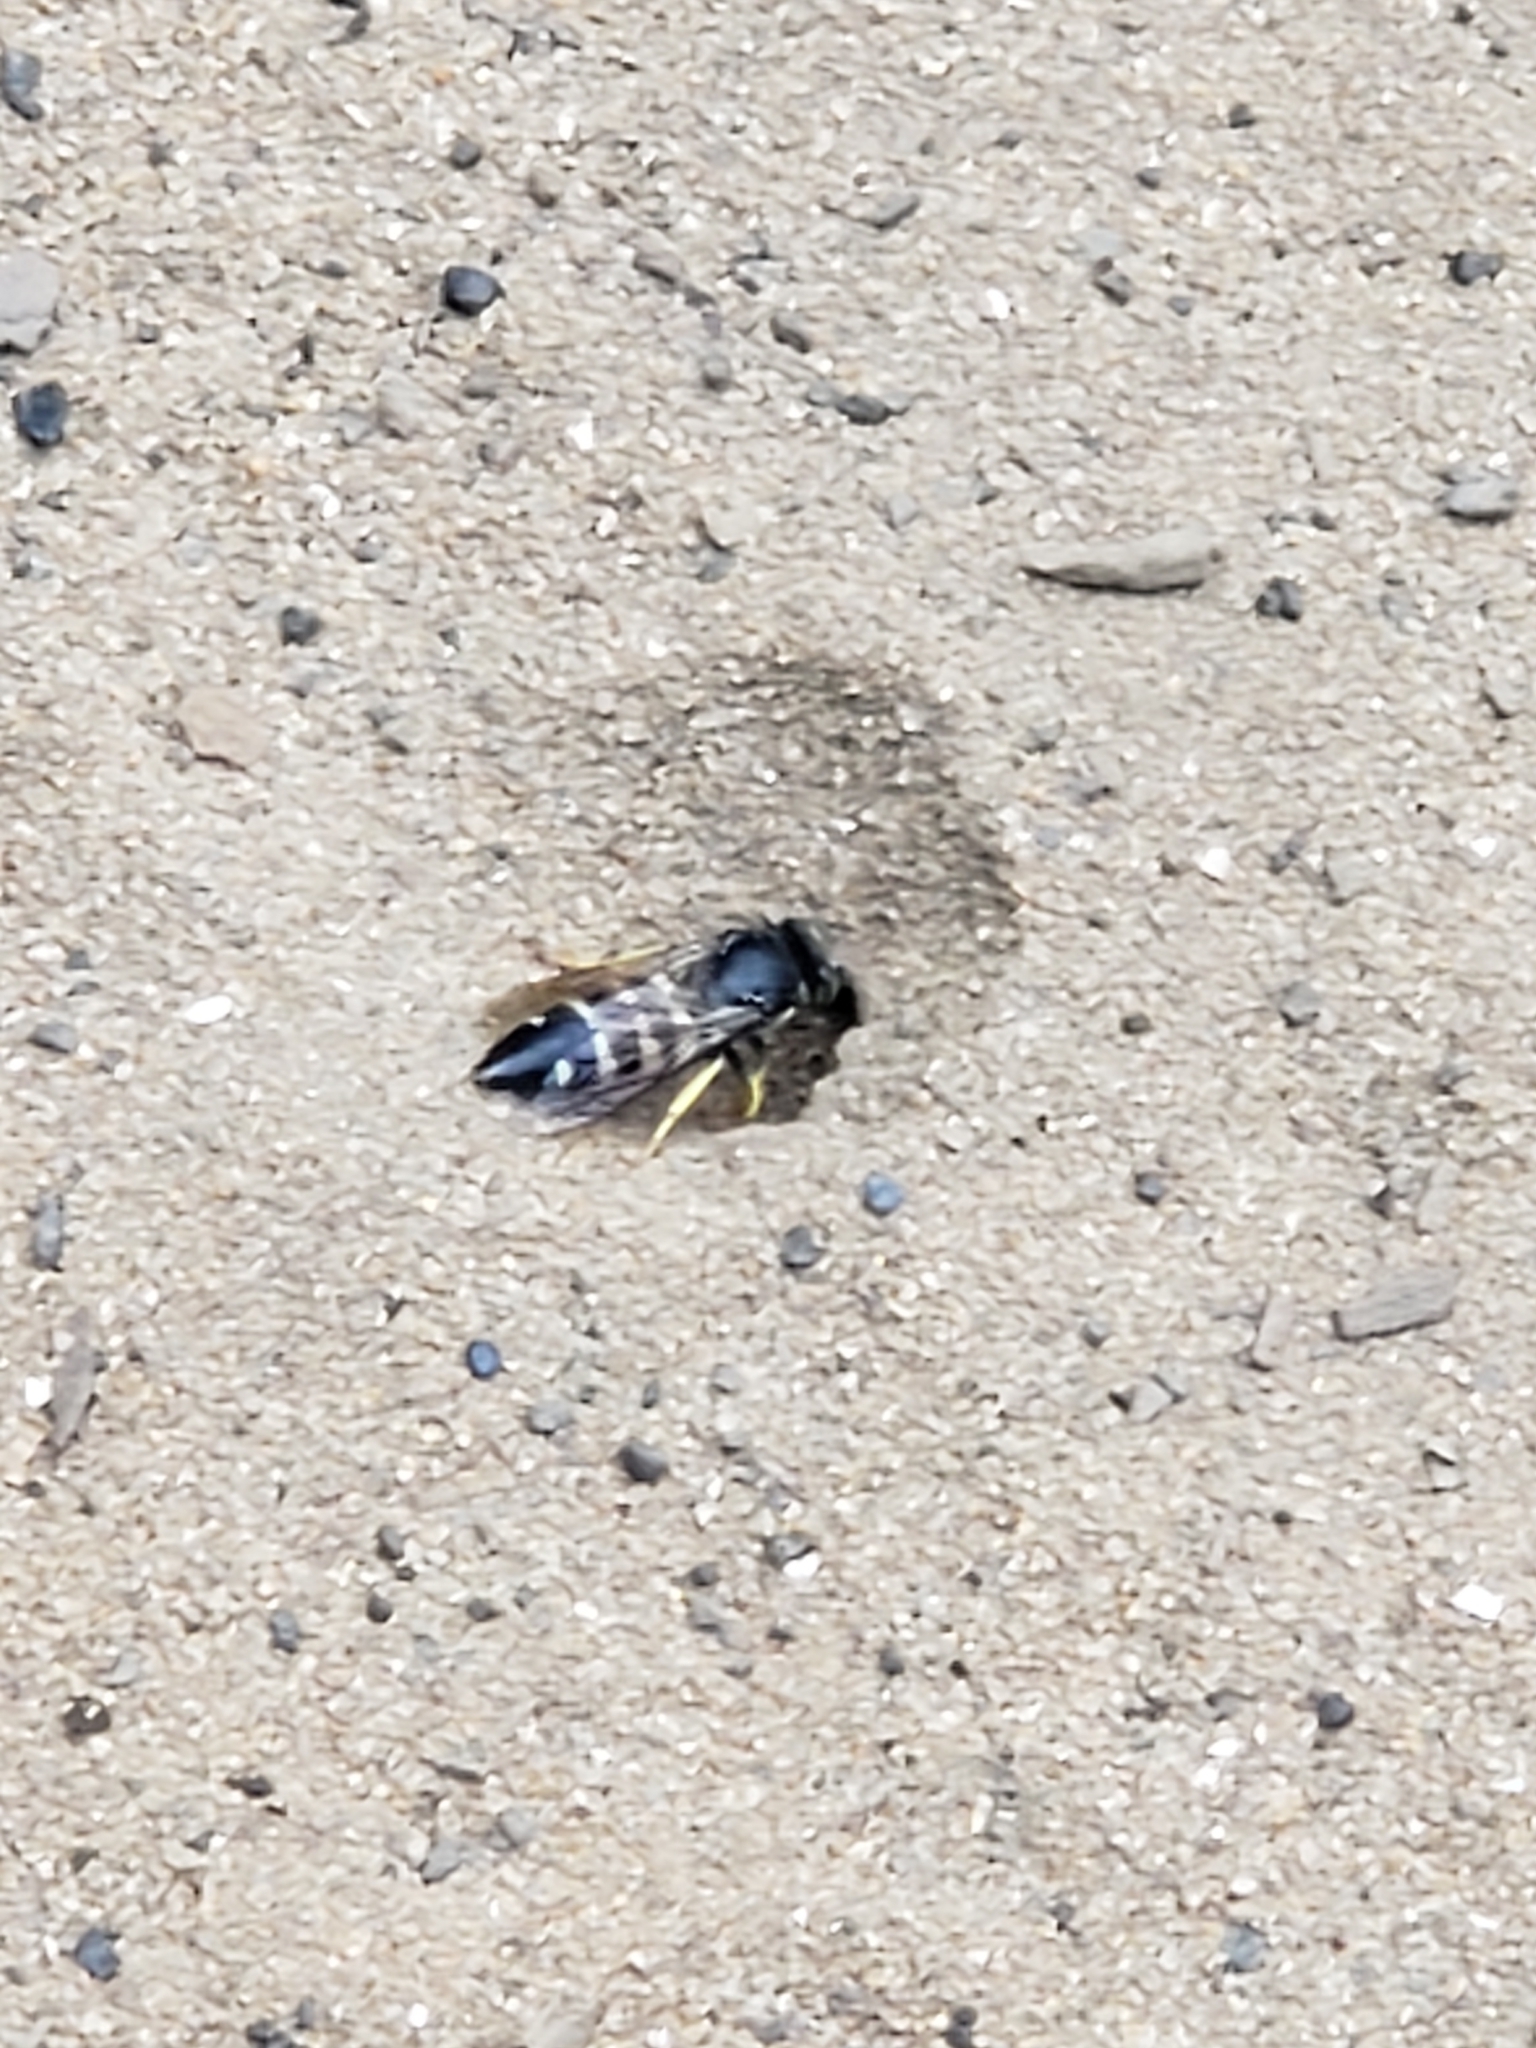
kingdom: Animalia
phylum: Arthropoda
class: Insecta
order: Hymenoptera
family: Crabronidae
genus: Bicyrtes
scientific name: Bicyrtes quadrifasciatus
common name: Four-banded stink bug hunter wasp
